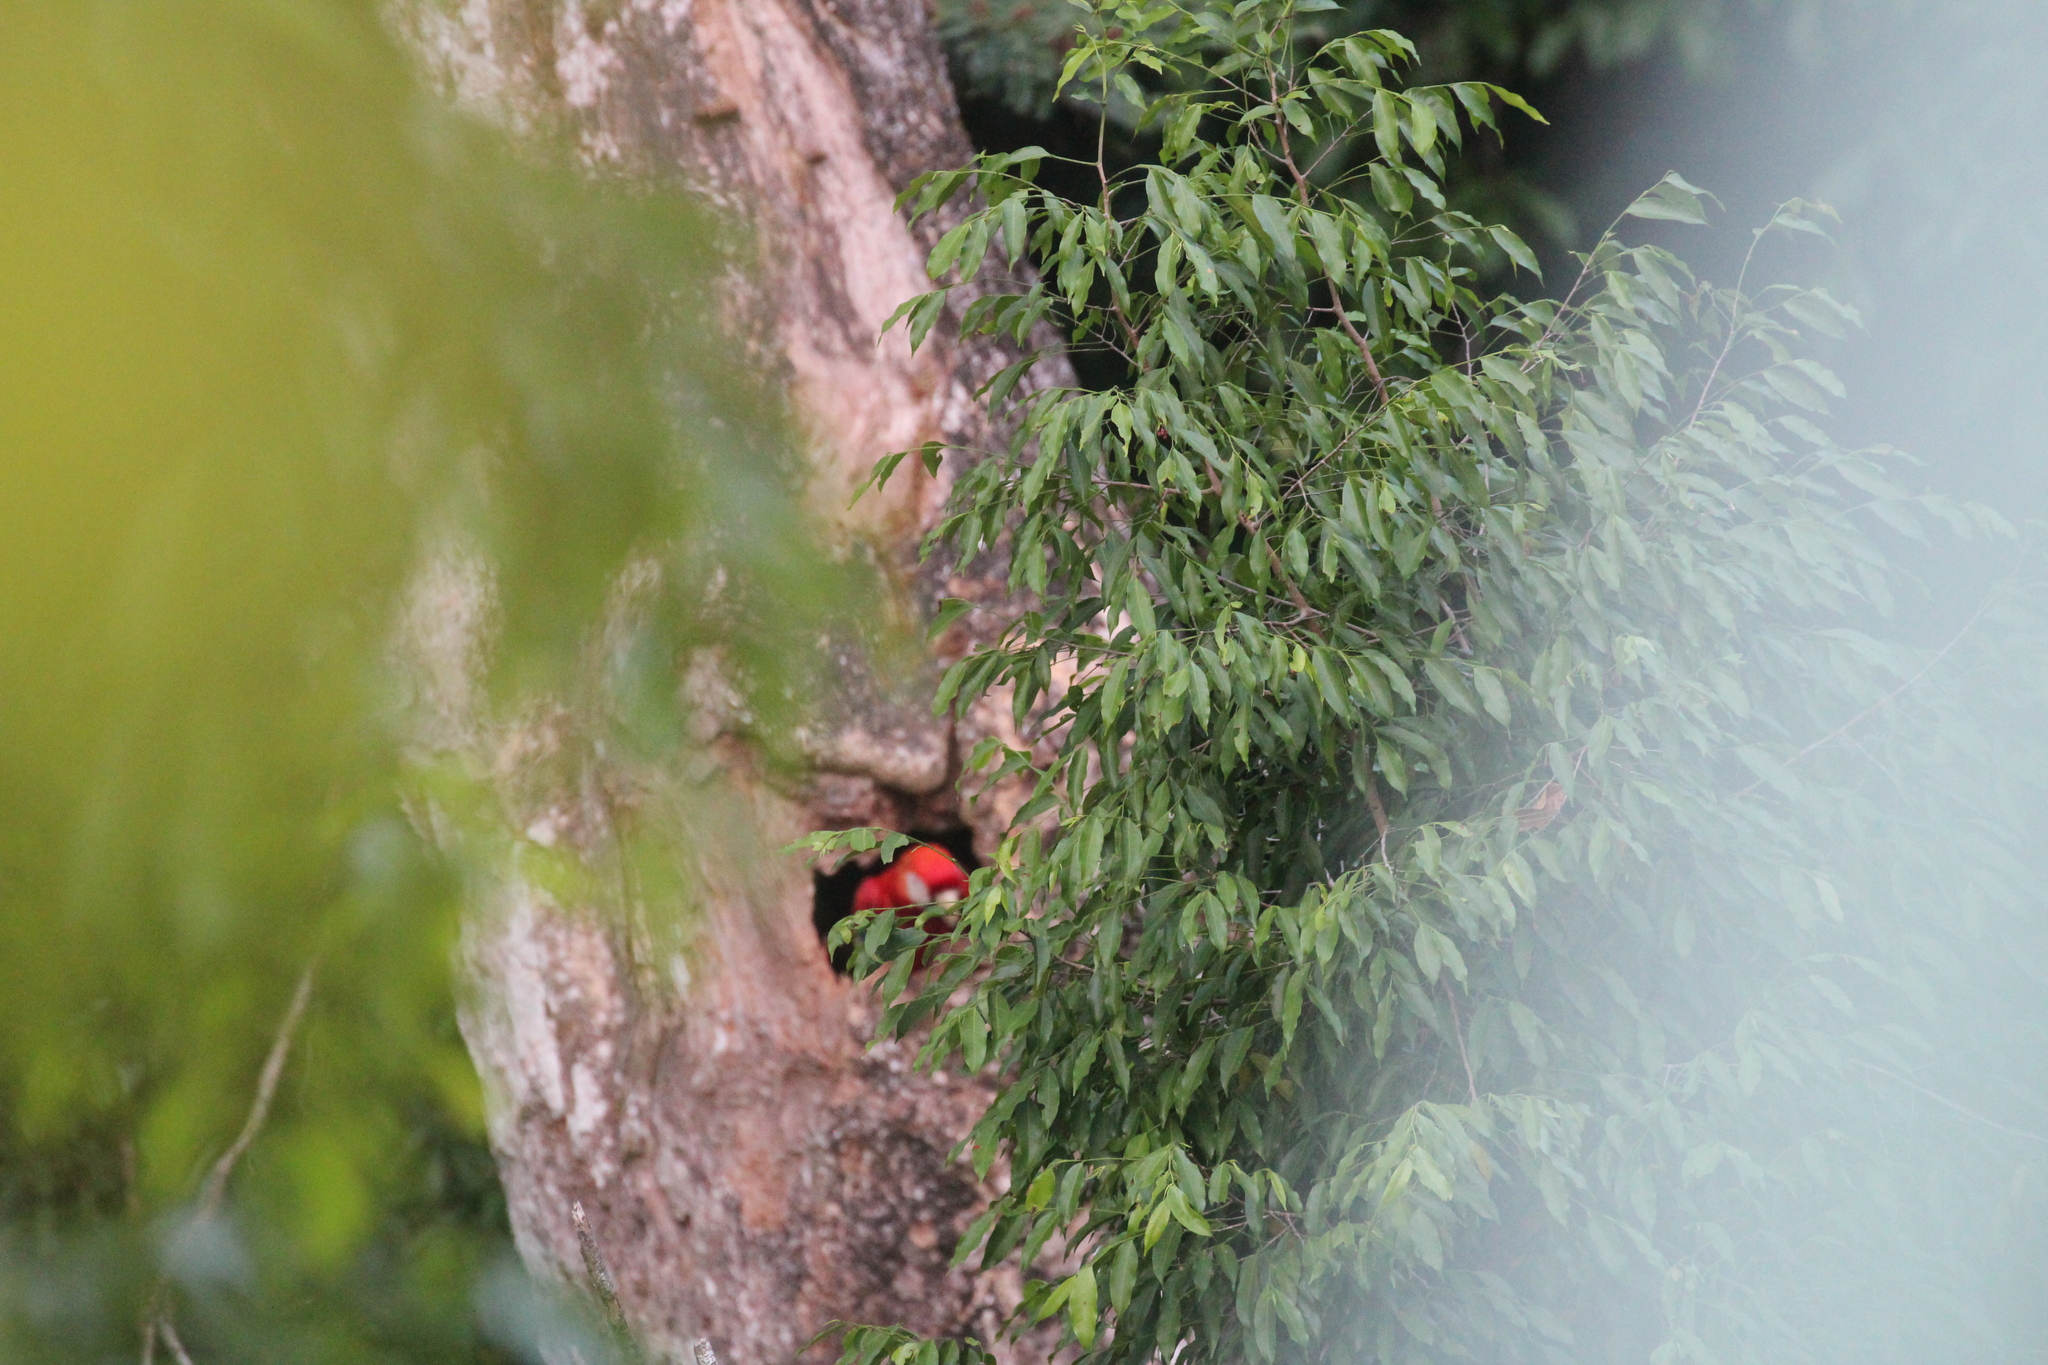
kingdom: Animalia
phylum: Chordata
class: Aves
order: Psittaciformes
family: Psittacidae
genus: Ara
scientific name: Ara macao
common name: Scarlet macaw
